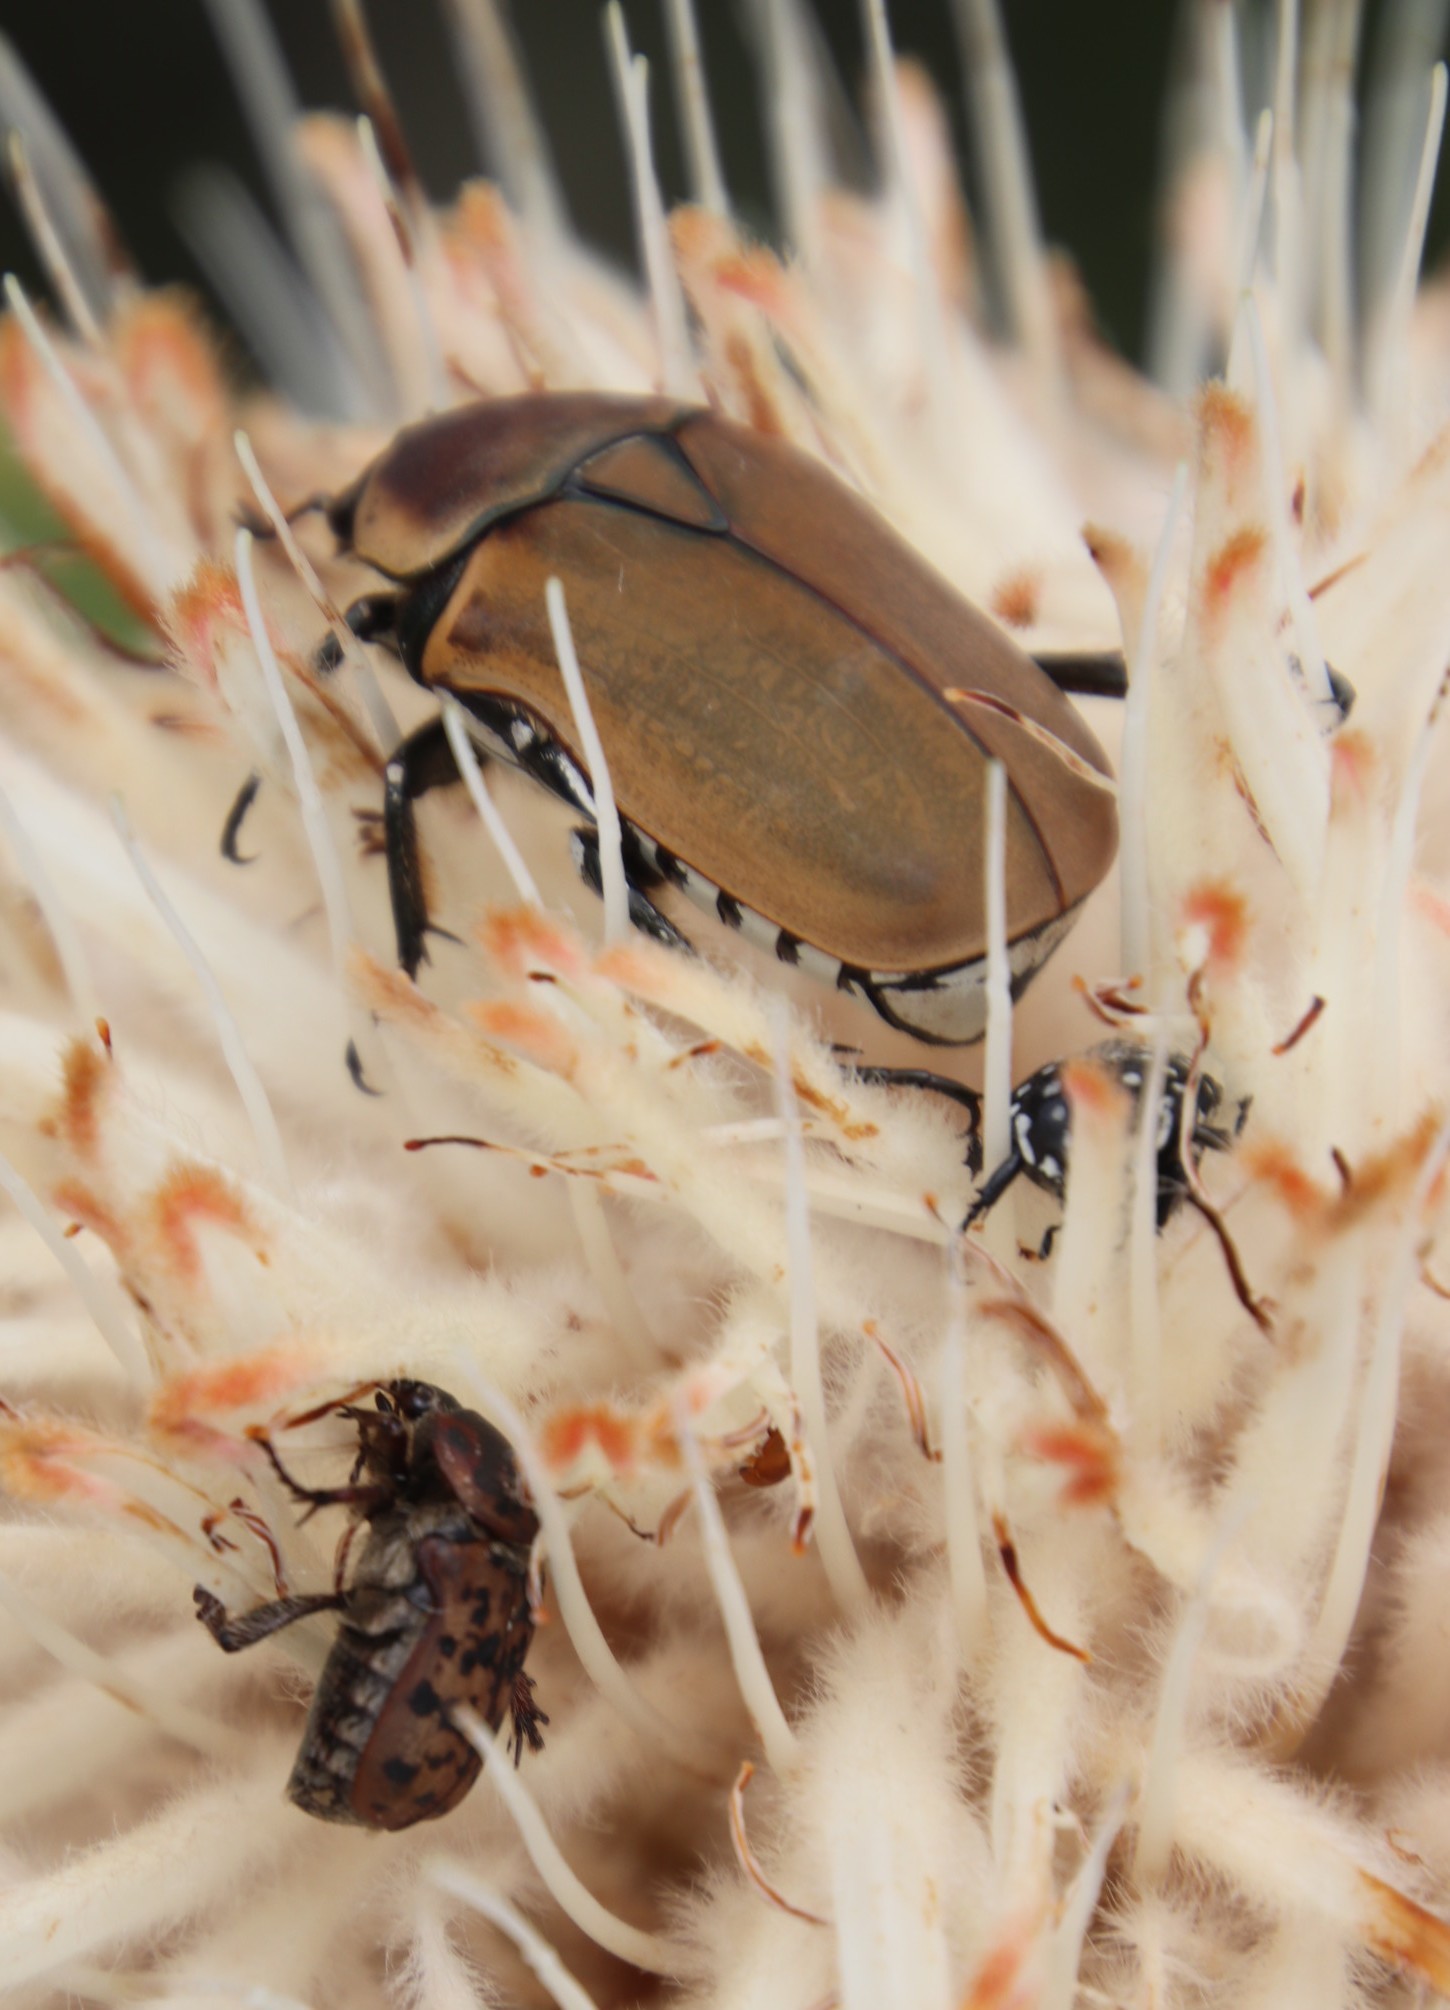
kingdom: Animalia
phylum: Arthropoda
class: Insecta
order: Coleoptera
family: Scarabaeidae
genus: Cyrtothyrea
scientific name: Cyrtothyrea testaceoguttata
